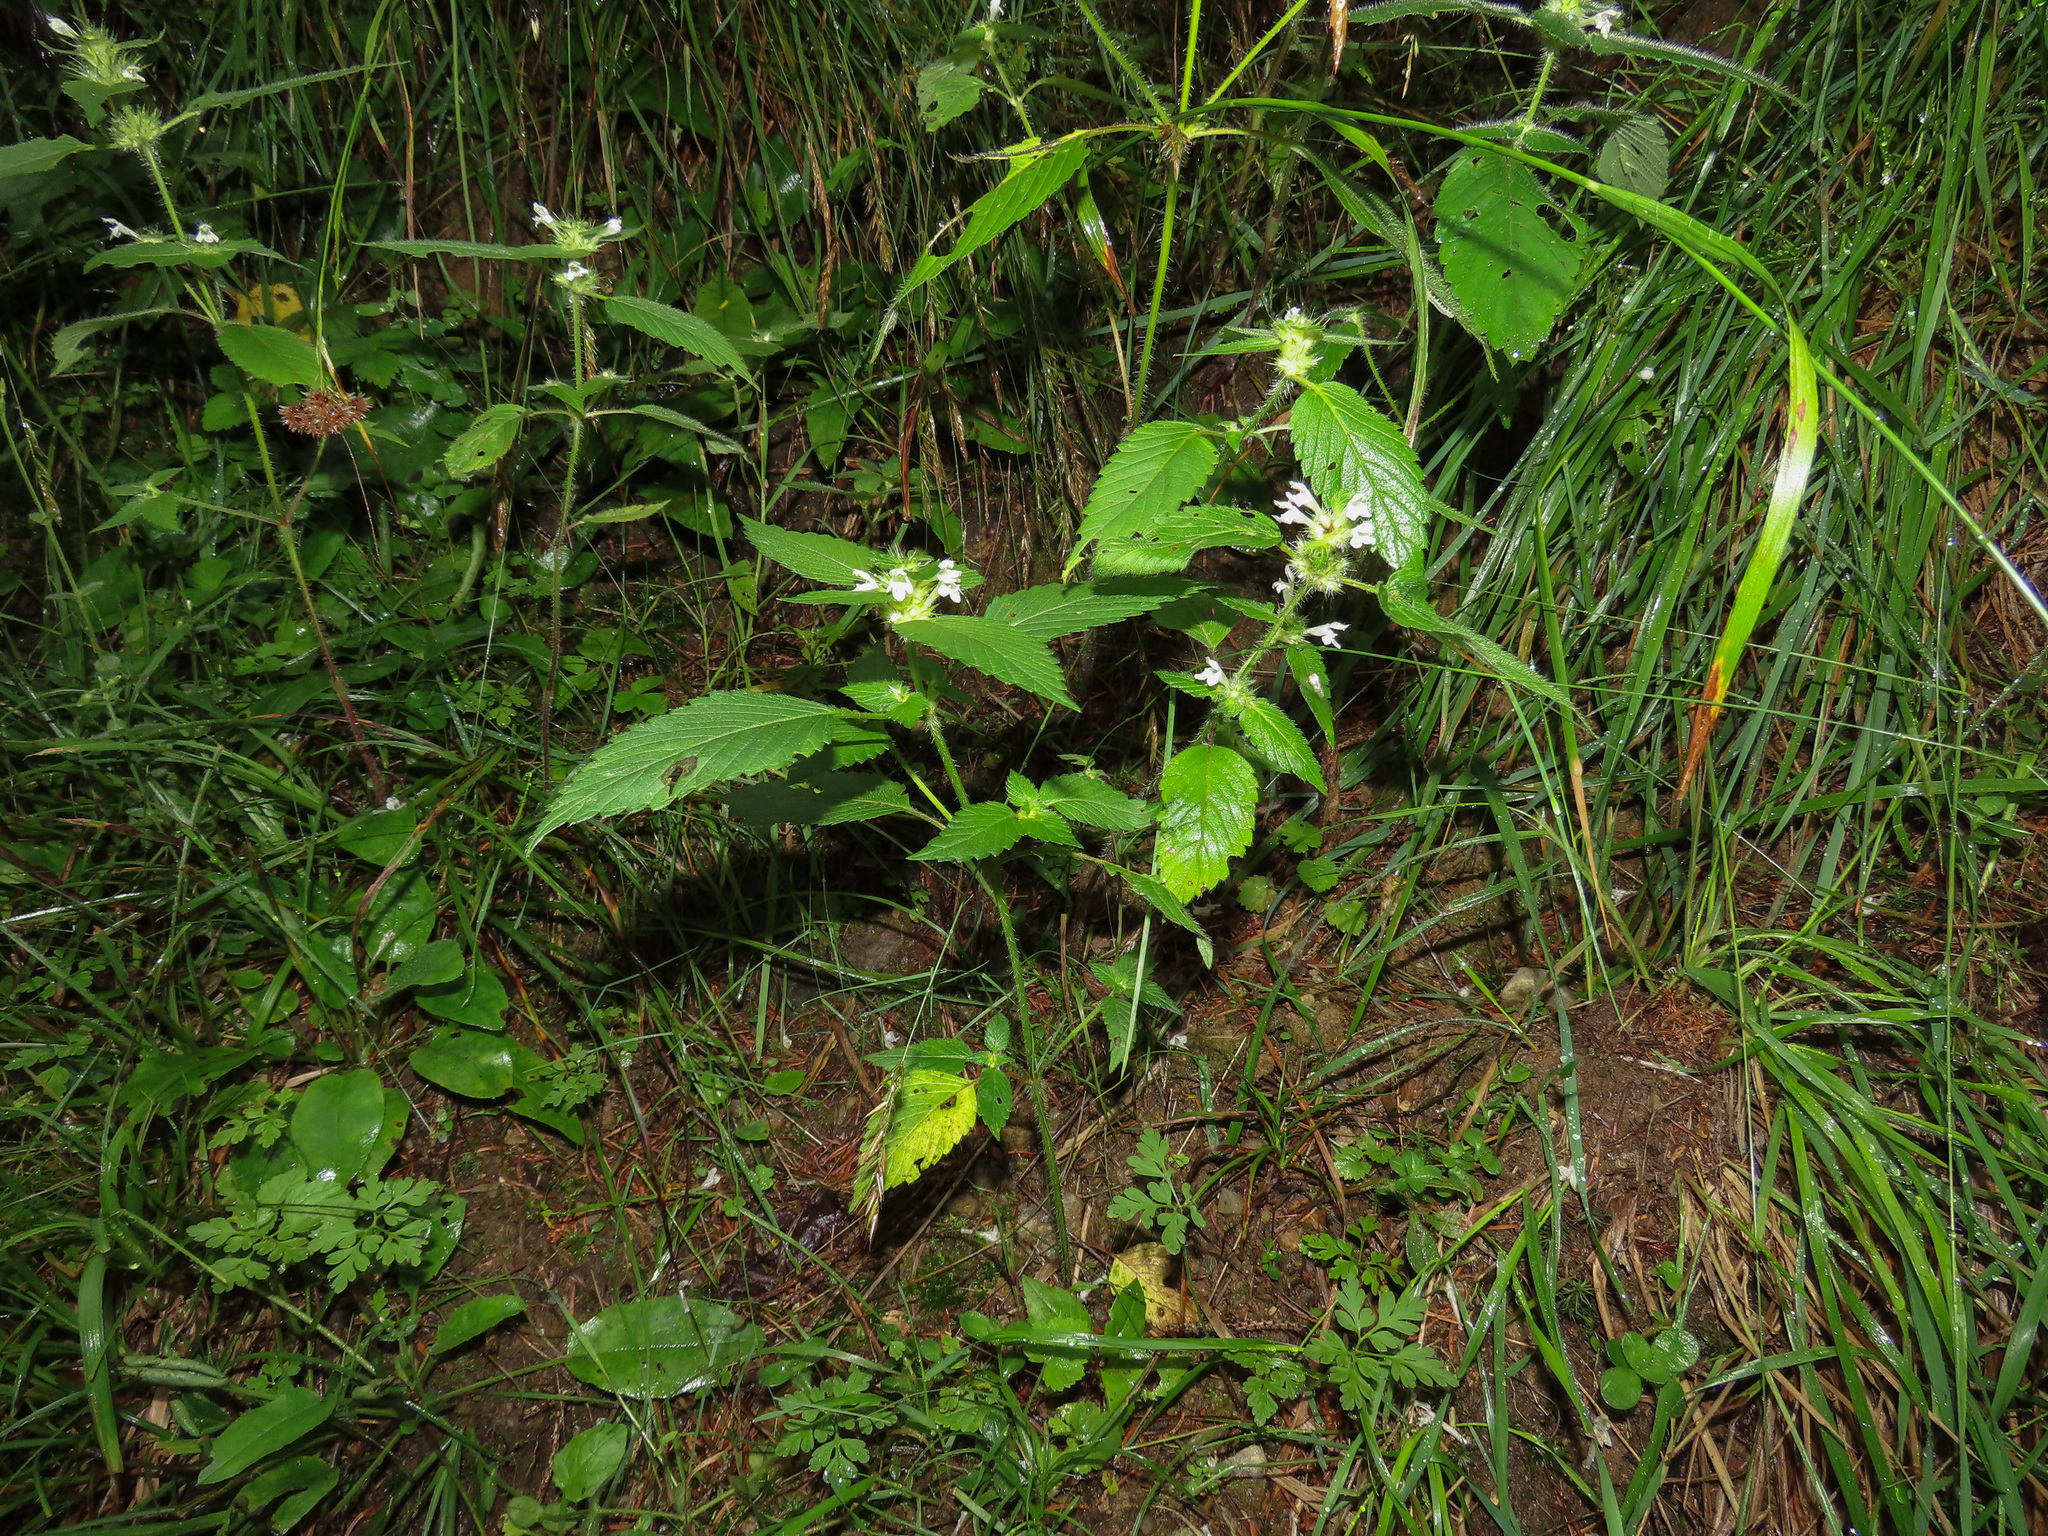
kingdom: Plantae
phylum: Tracheophyta
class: Magnoliopsida
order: Lamiales
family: Lamiaceae
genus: Galeopsis
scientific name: Galeopsis tetrahit
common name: Common hemp-nettle
